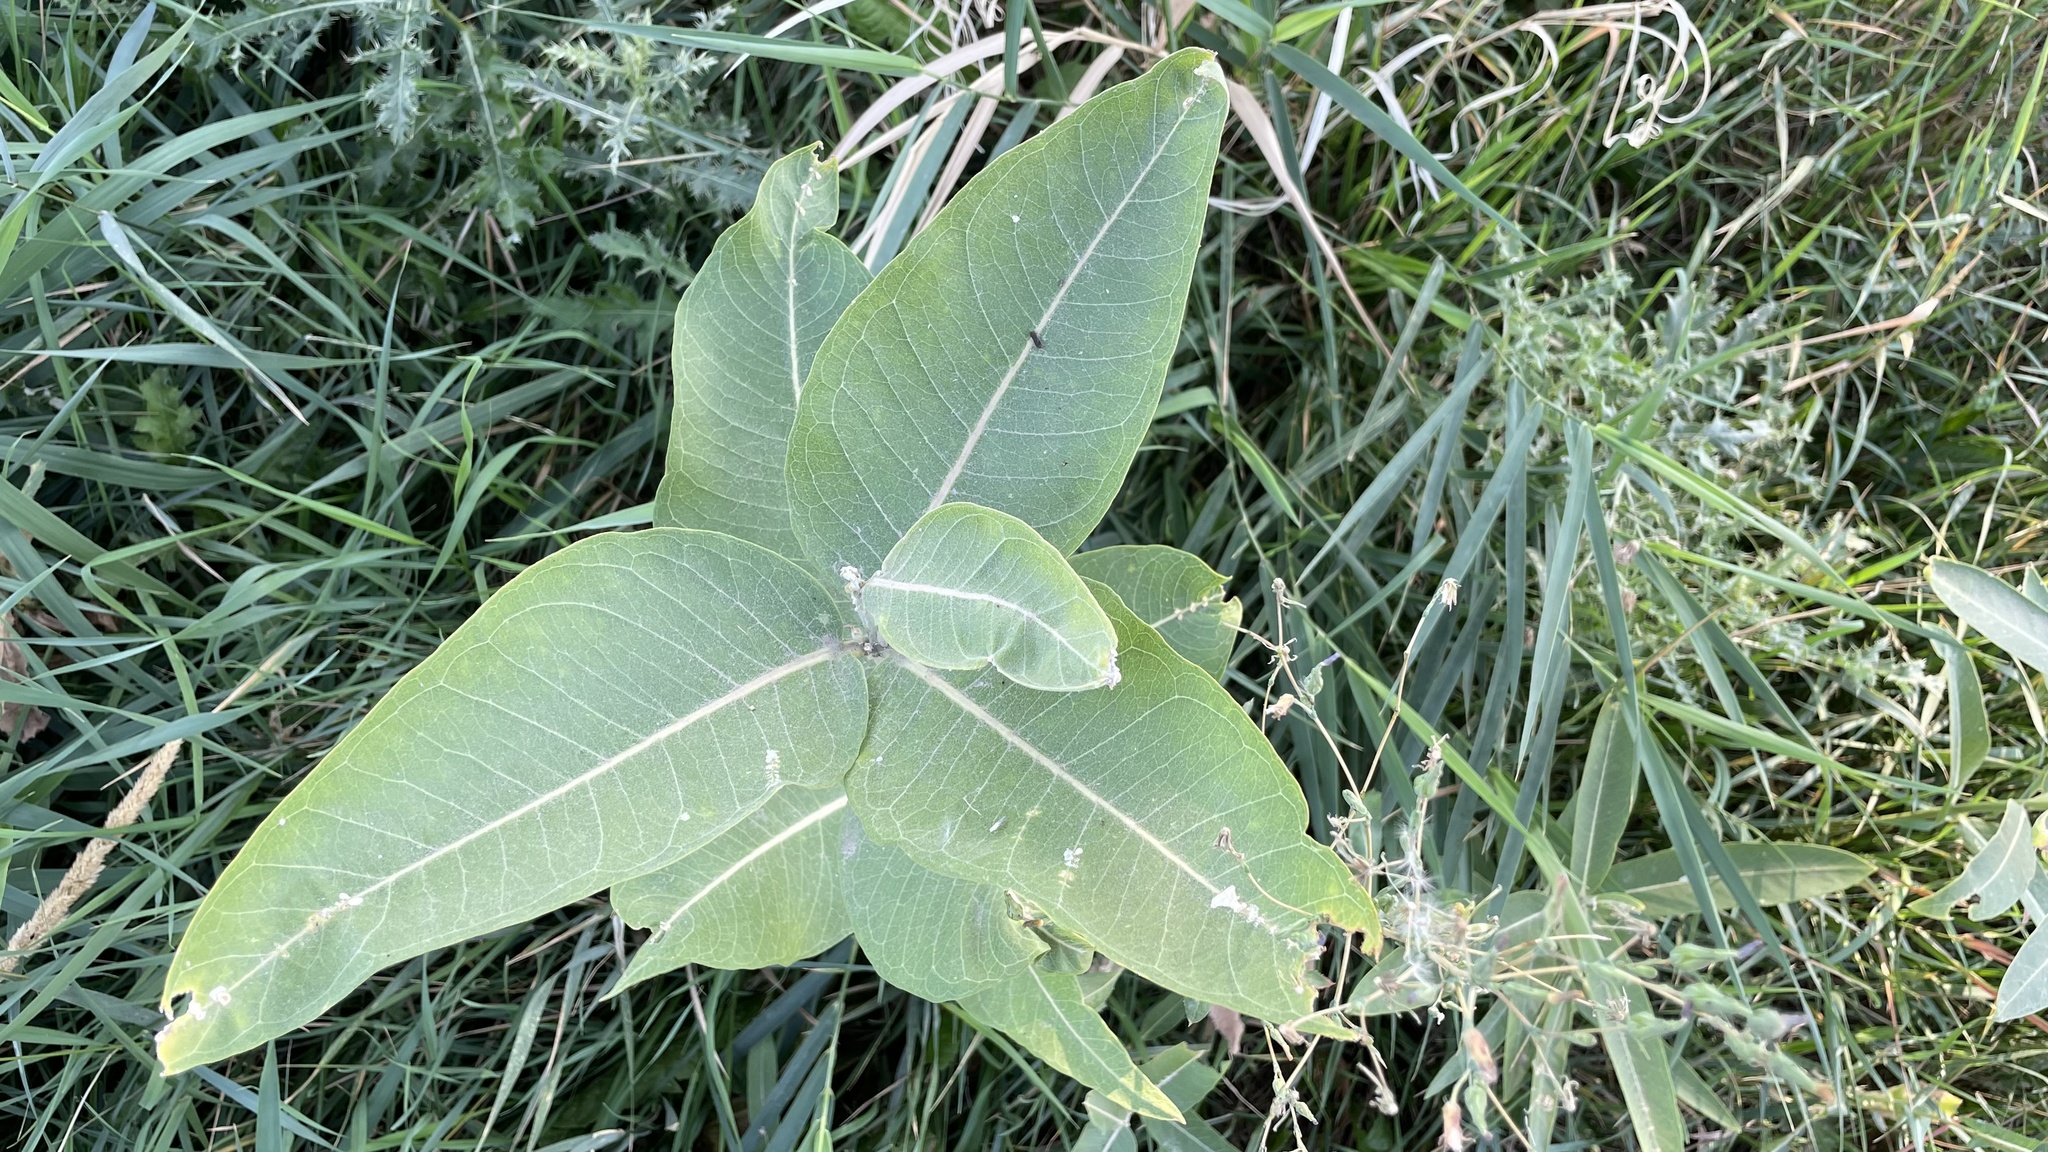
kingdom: Plantae
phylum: Tracheophyta
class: Magnoliopsida
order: Gentianales
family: Apocynaceae
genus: Asclepias
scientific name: Asclepias speciosa
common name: Showy milkweed
